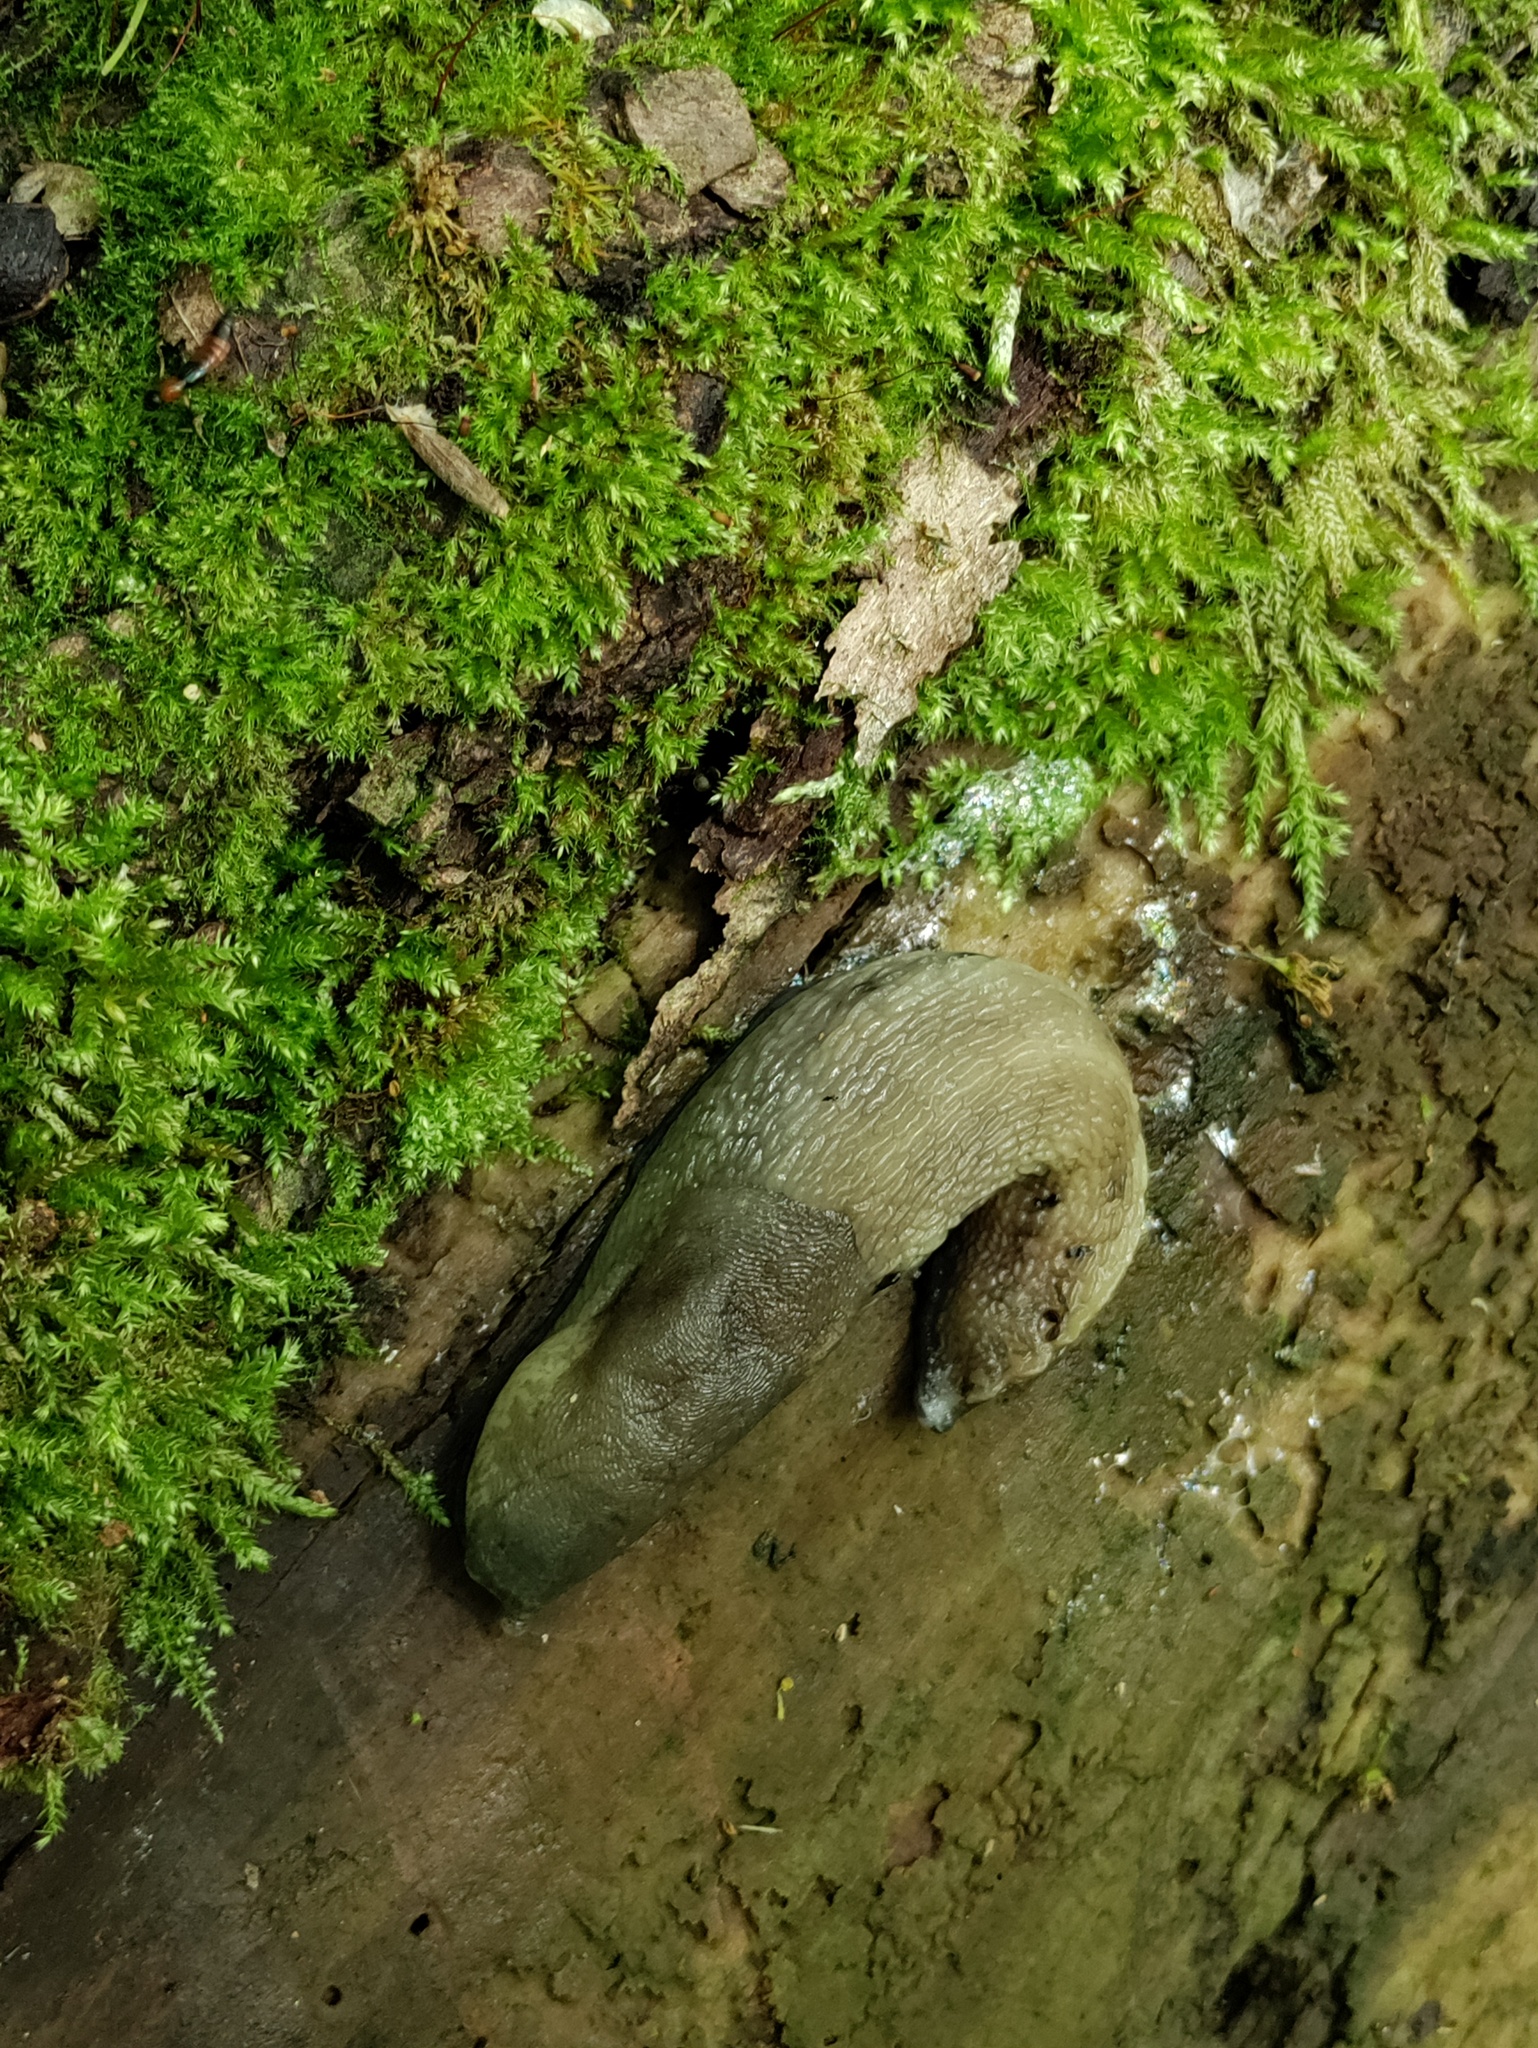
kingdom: Animalia
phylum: Mollusca
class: Gastropoda
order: Stylommatophora
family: Limacidae
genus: Limax
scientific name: Limax cinereoniger
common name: Ash-black slug
